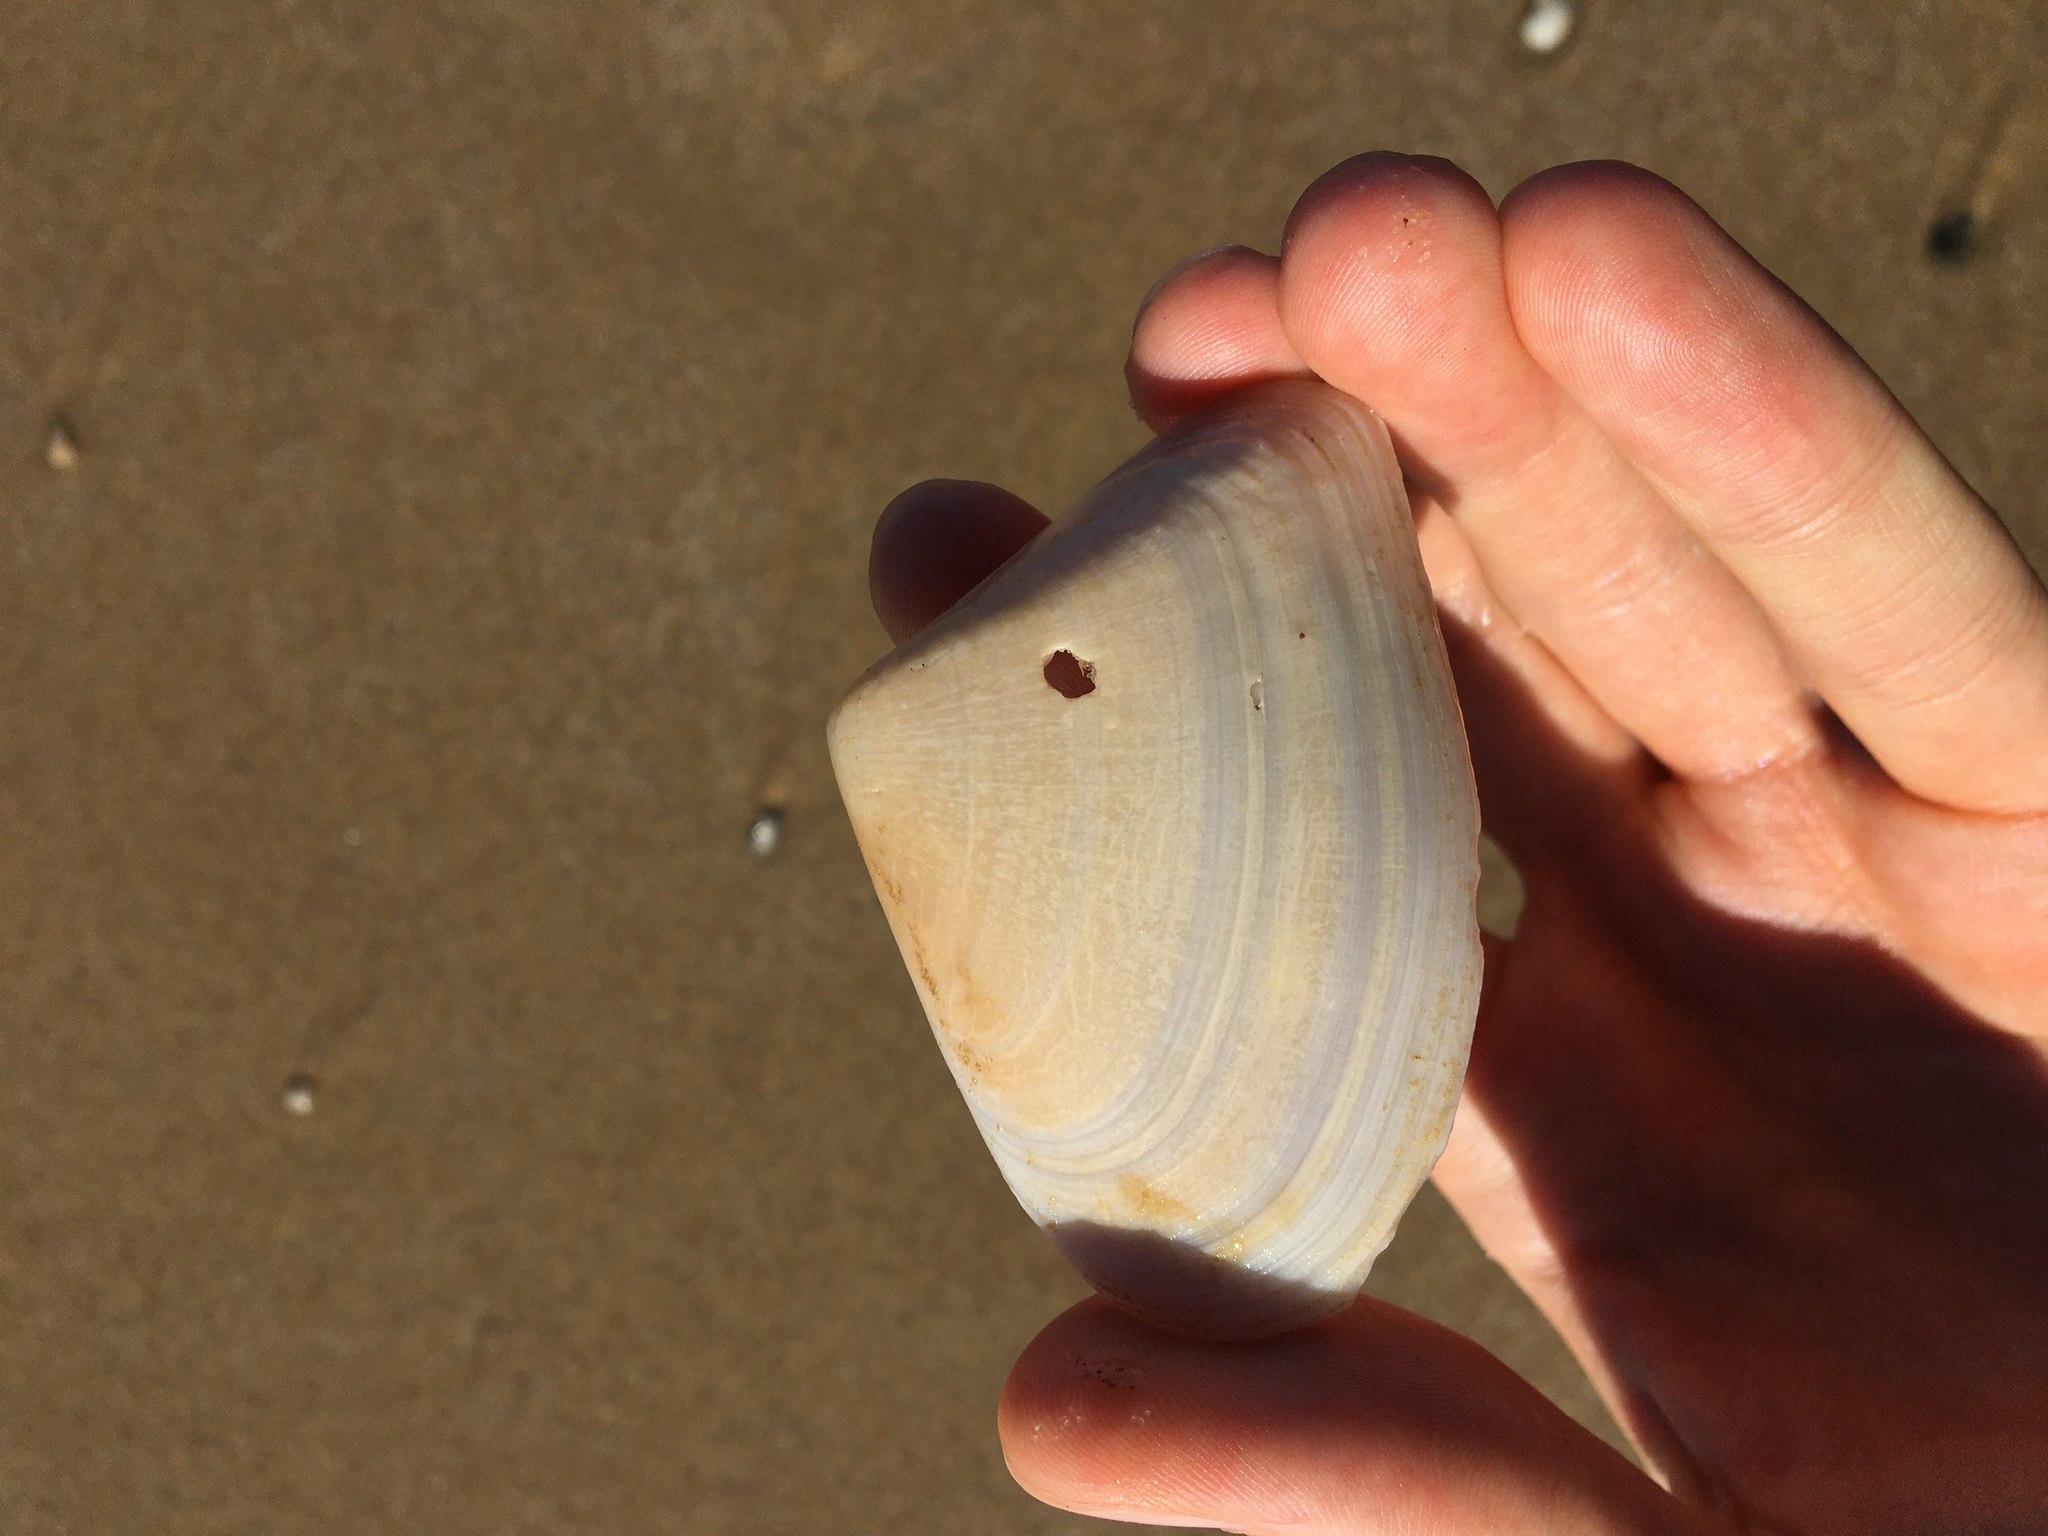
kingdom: Animalia
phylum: Mollusca
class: Bivalvia
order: Cardiida
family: Donacidae
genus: Latona
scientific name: Latona deltoides
